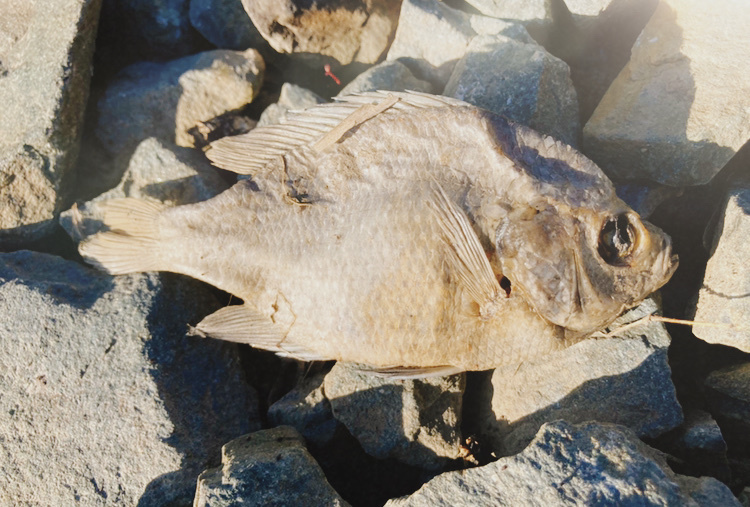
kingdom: Animalia
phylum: Chordata
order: Perciformes
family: Centrarchidae
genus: Lepomis
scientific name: Lepomis
